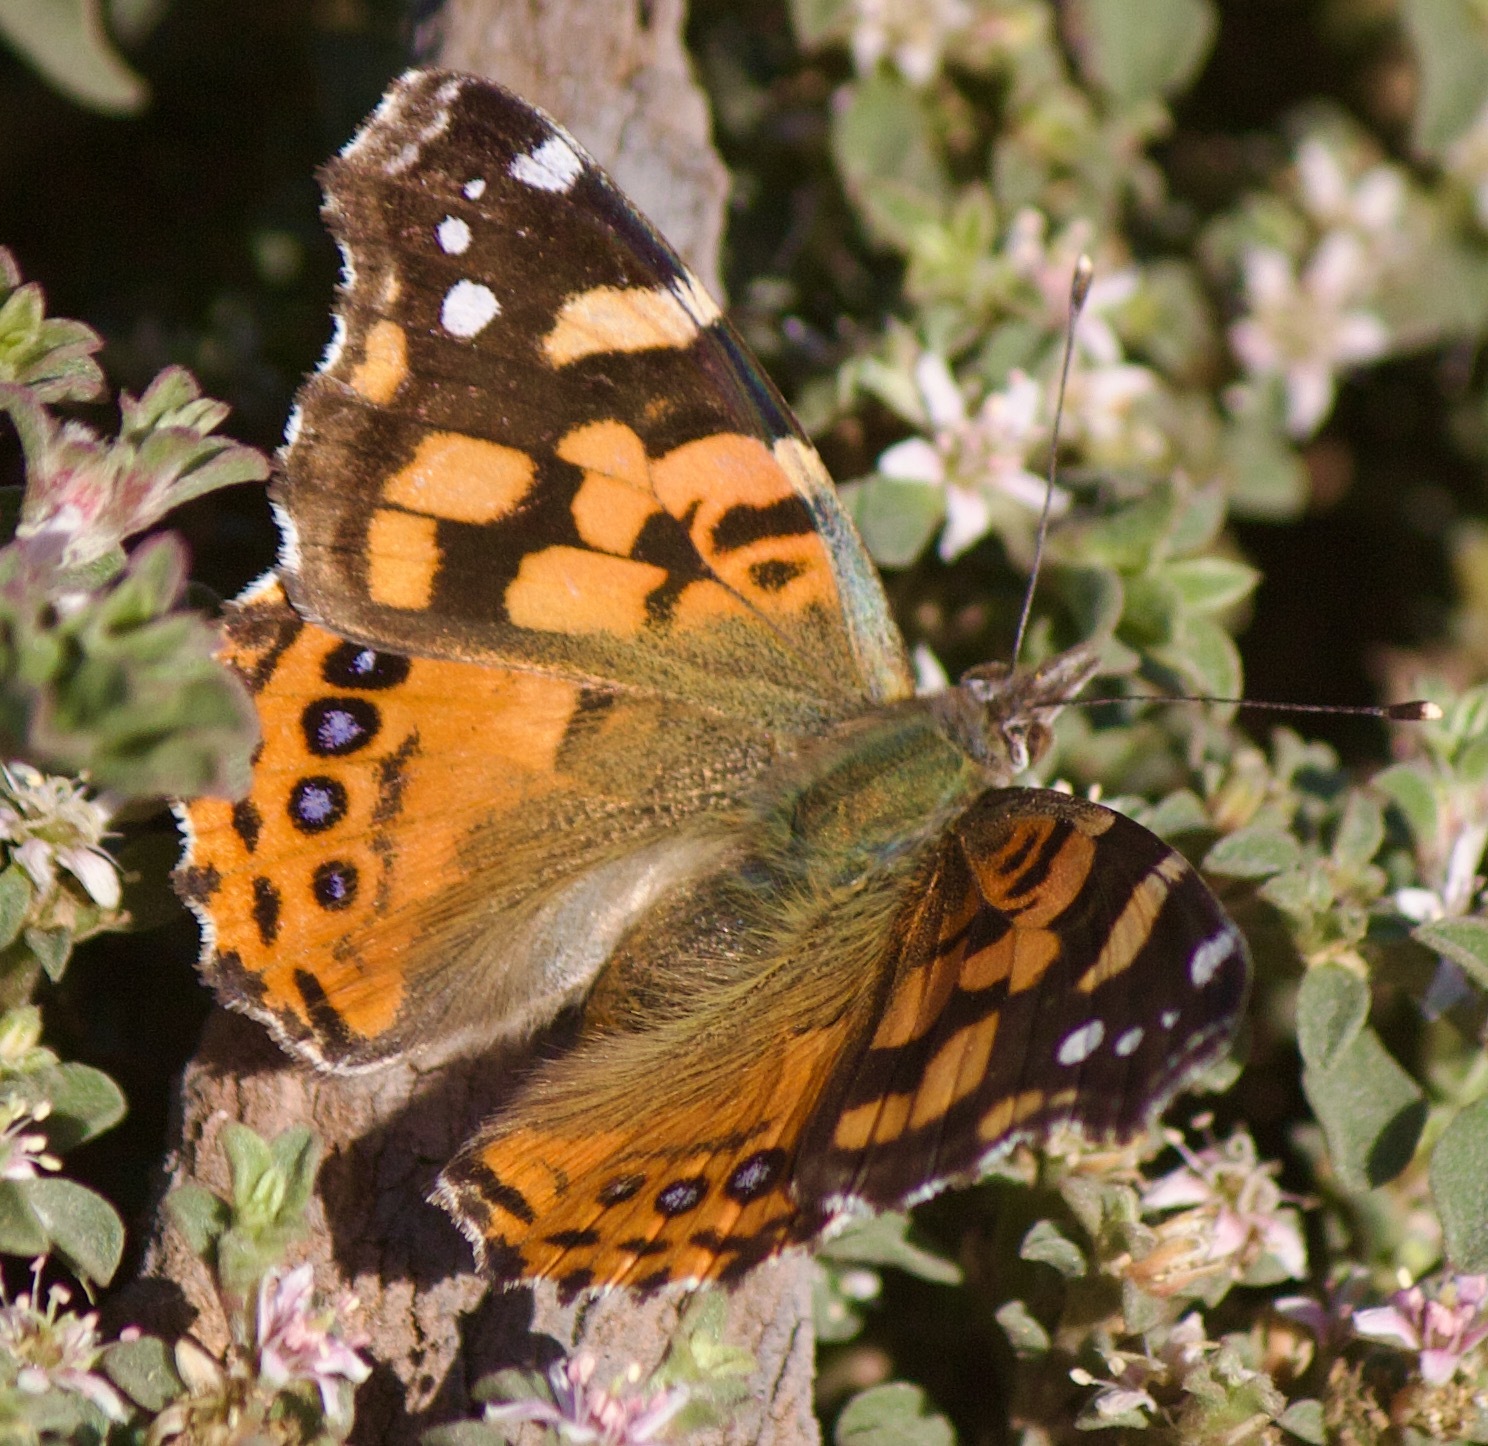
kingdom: Animalia
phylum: Arthropoda
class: Insecta
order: Lepidoptera
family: Nymphalidae
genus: Vanessa
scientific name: Vanessa carye
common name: Subtropical lady
